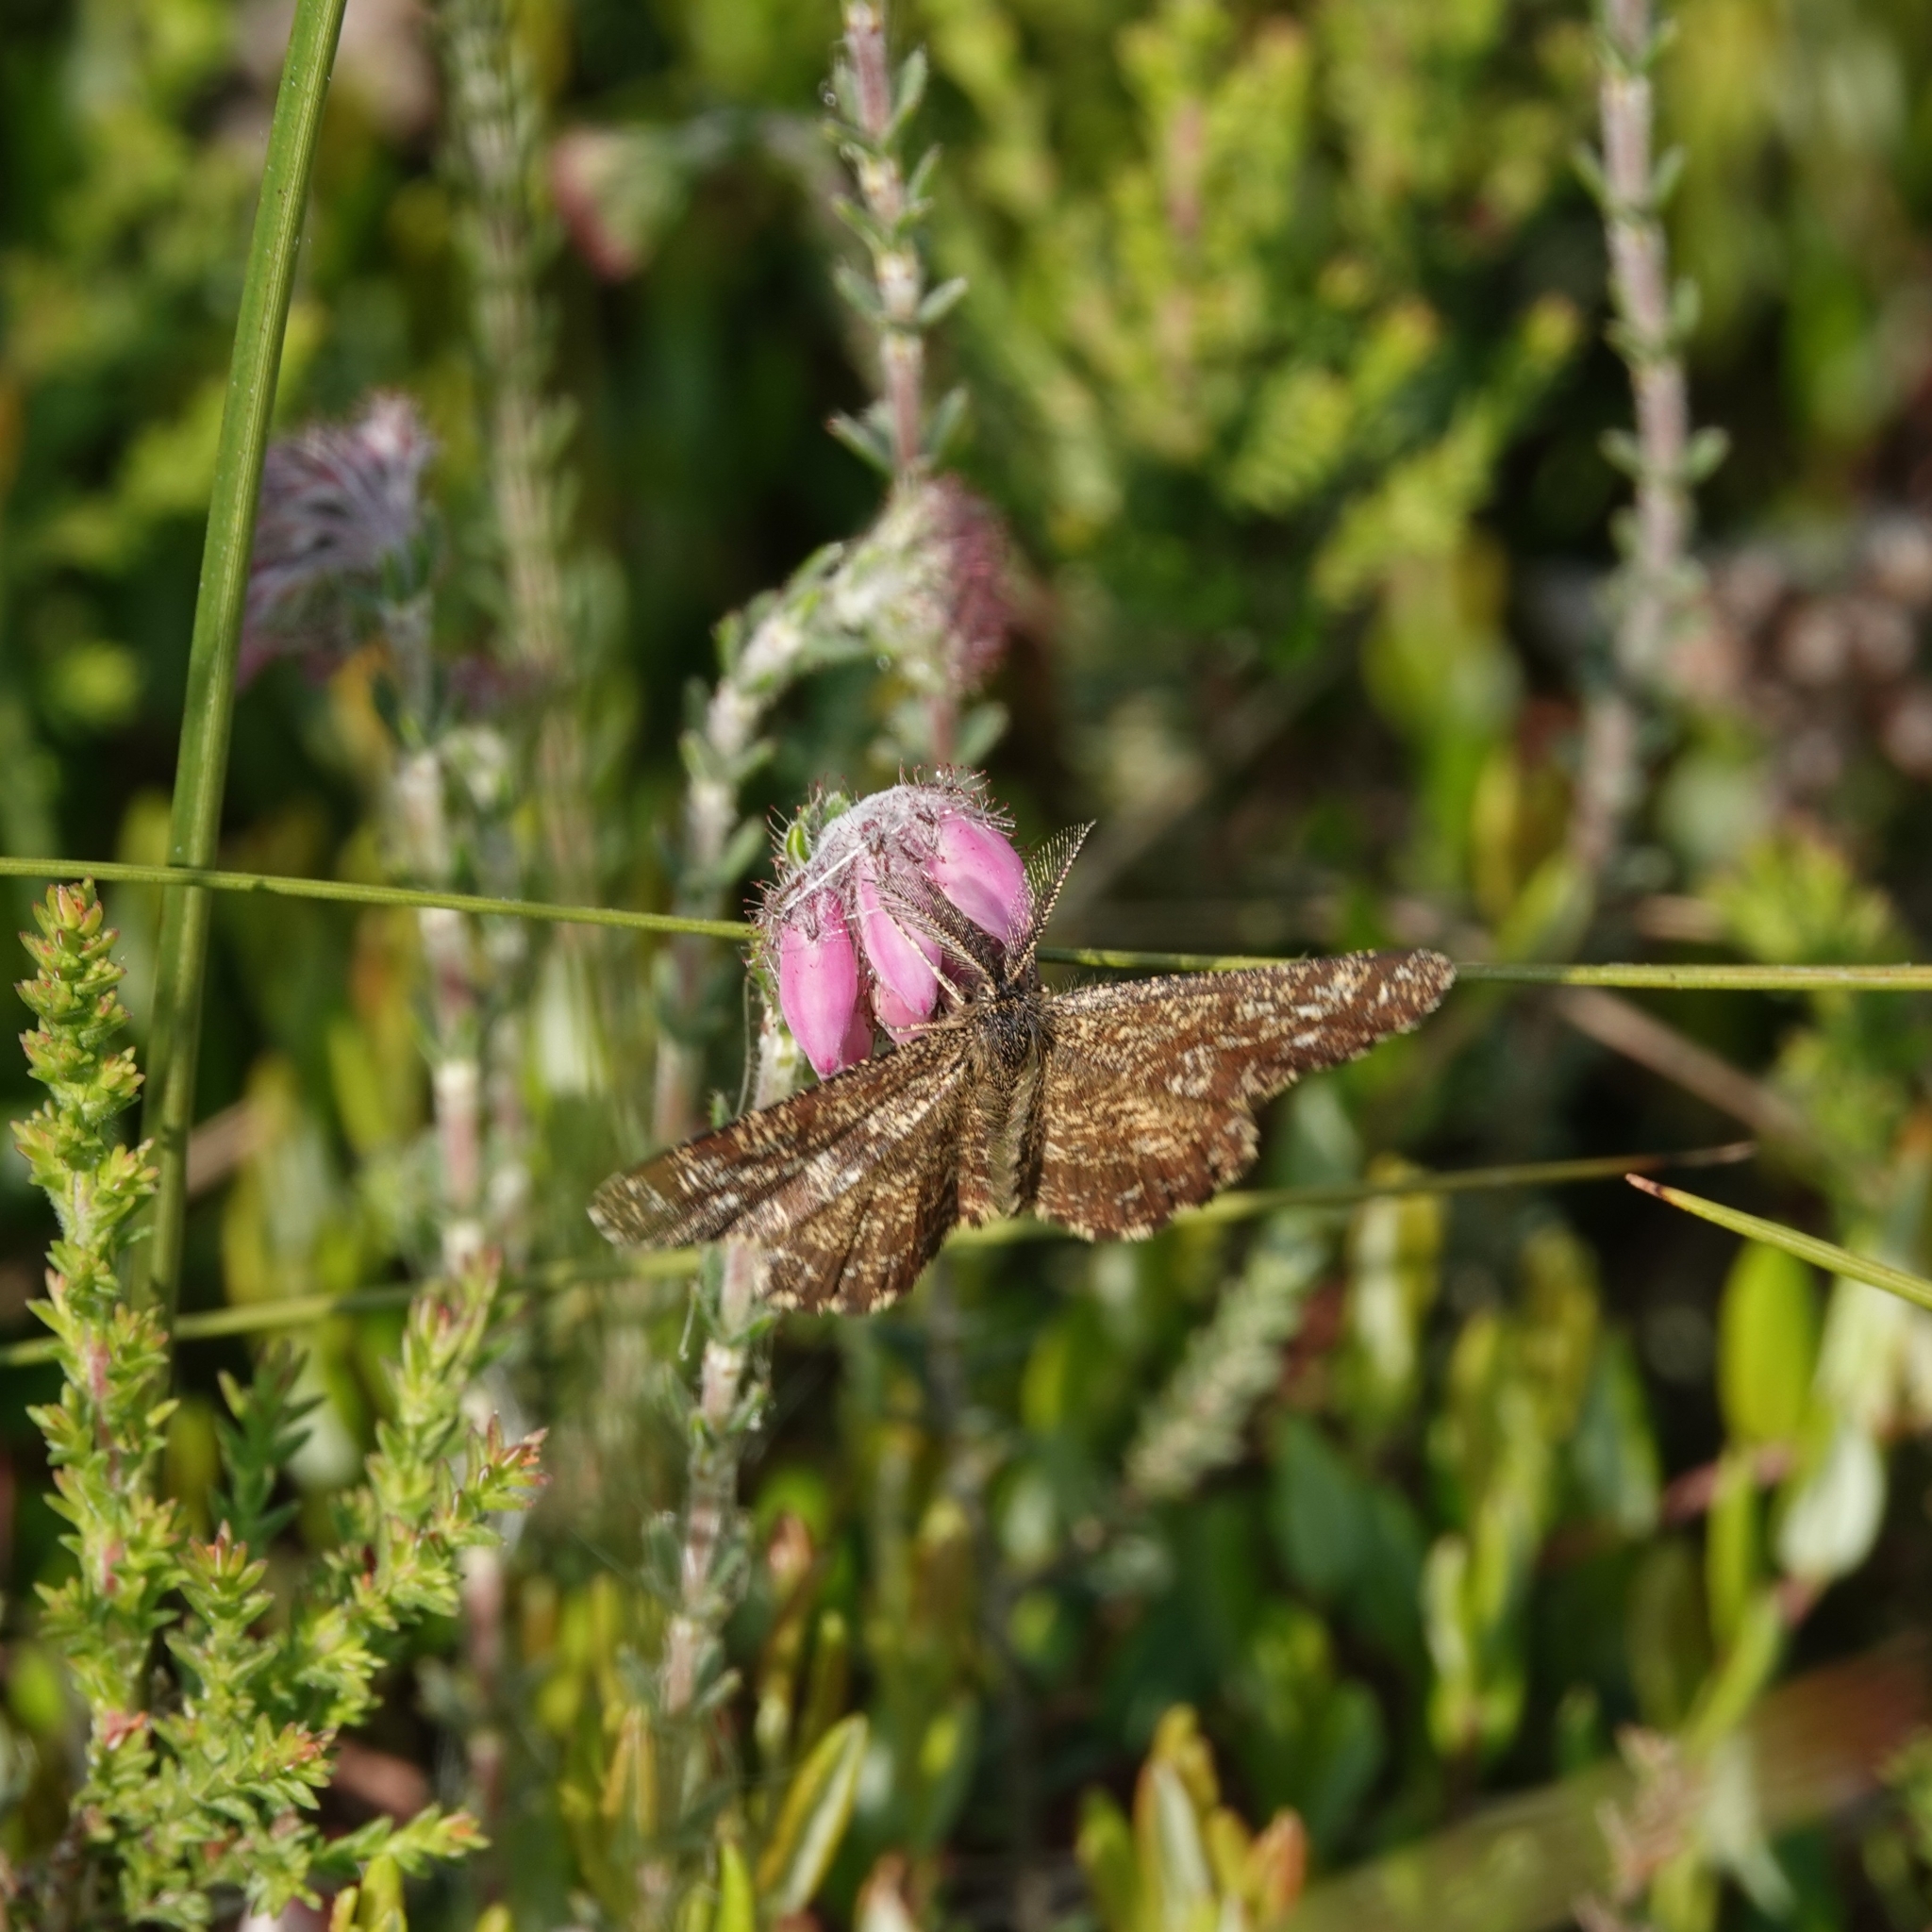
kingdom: Plantae
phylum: Tracheophyta
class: Magnoliopsida
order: Ericales
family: Ericaceae
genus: Erica
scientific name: Erica tetralix
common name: Cross-leaved heath
